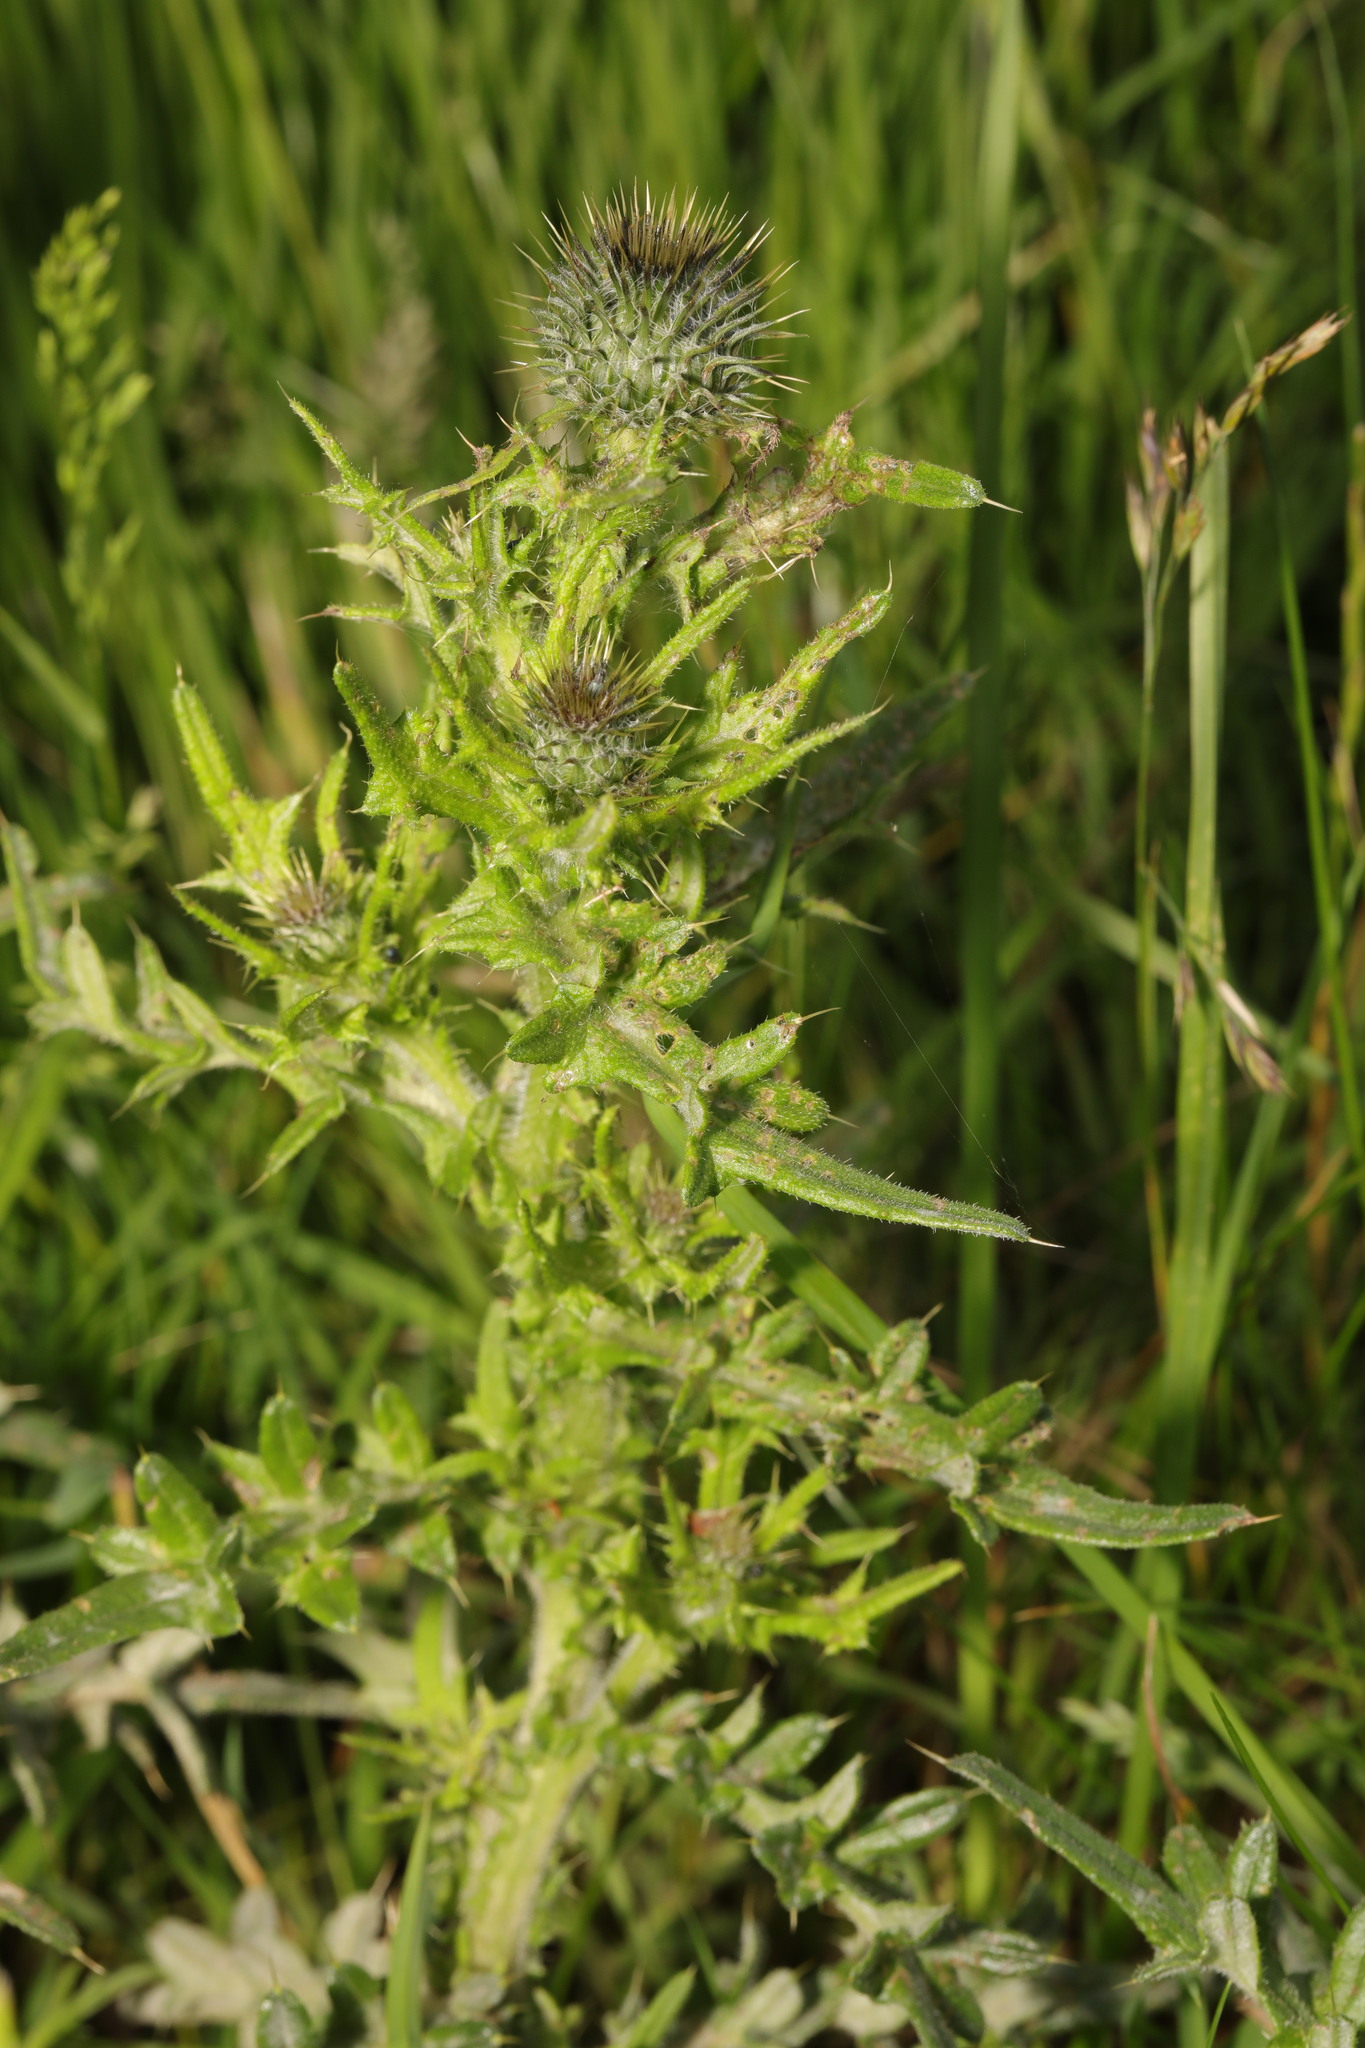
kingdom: Plantae
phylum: Tracheophyta
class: Magnoliopsida
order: Asterales
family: Asteraceae
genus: Cirsium
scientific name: Cirsium vulgare
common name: Bull thistle
